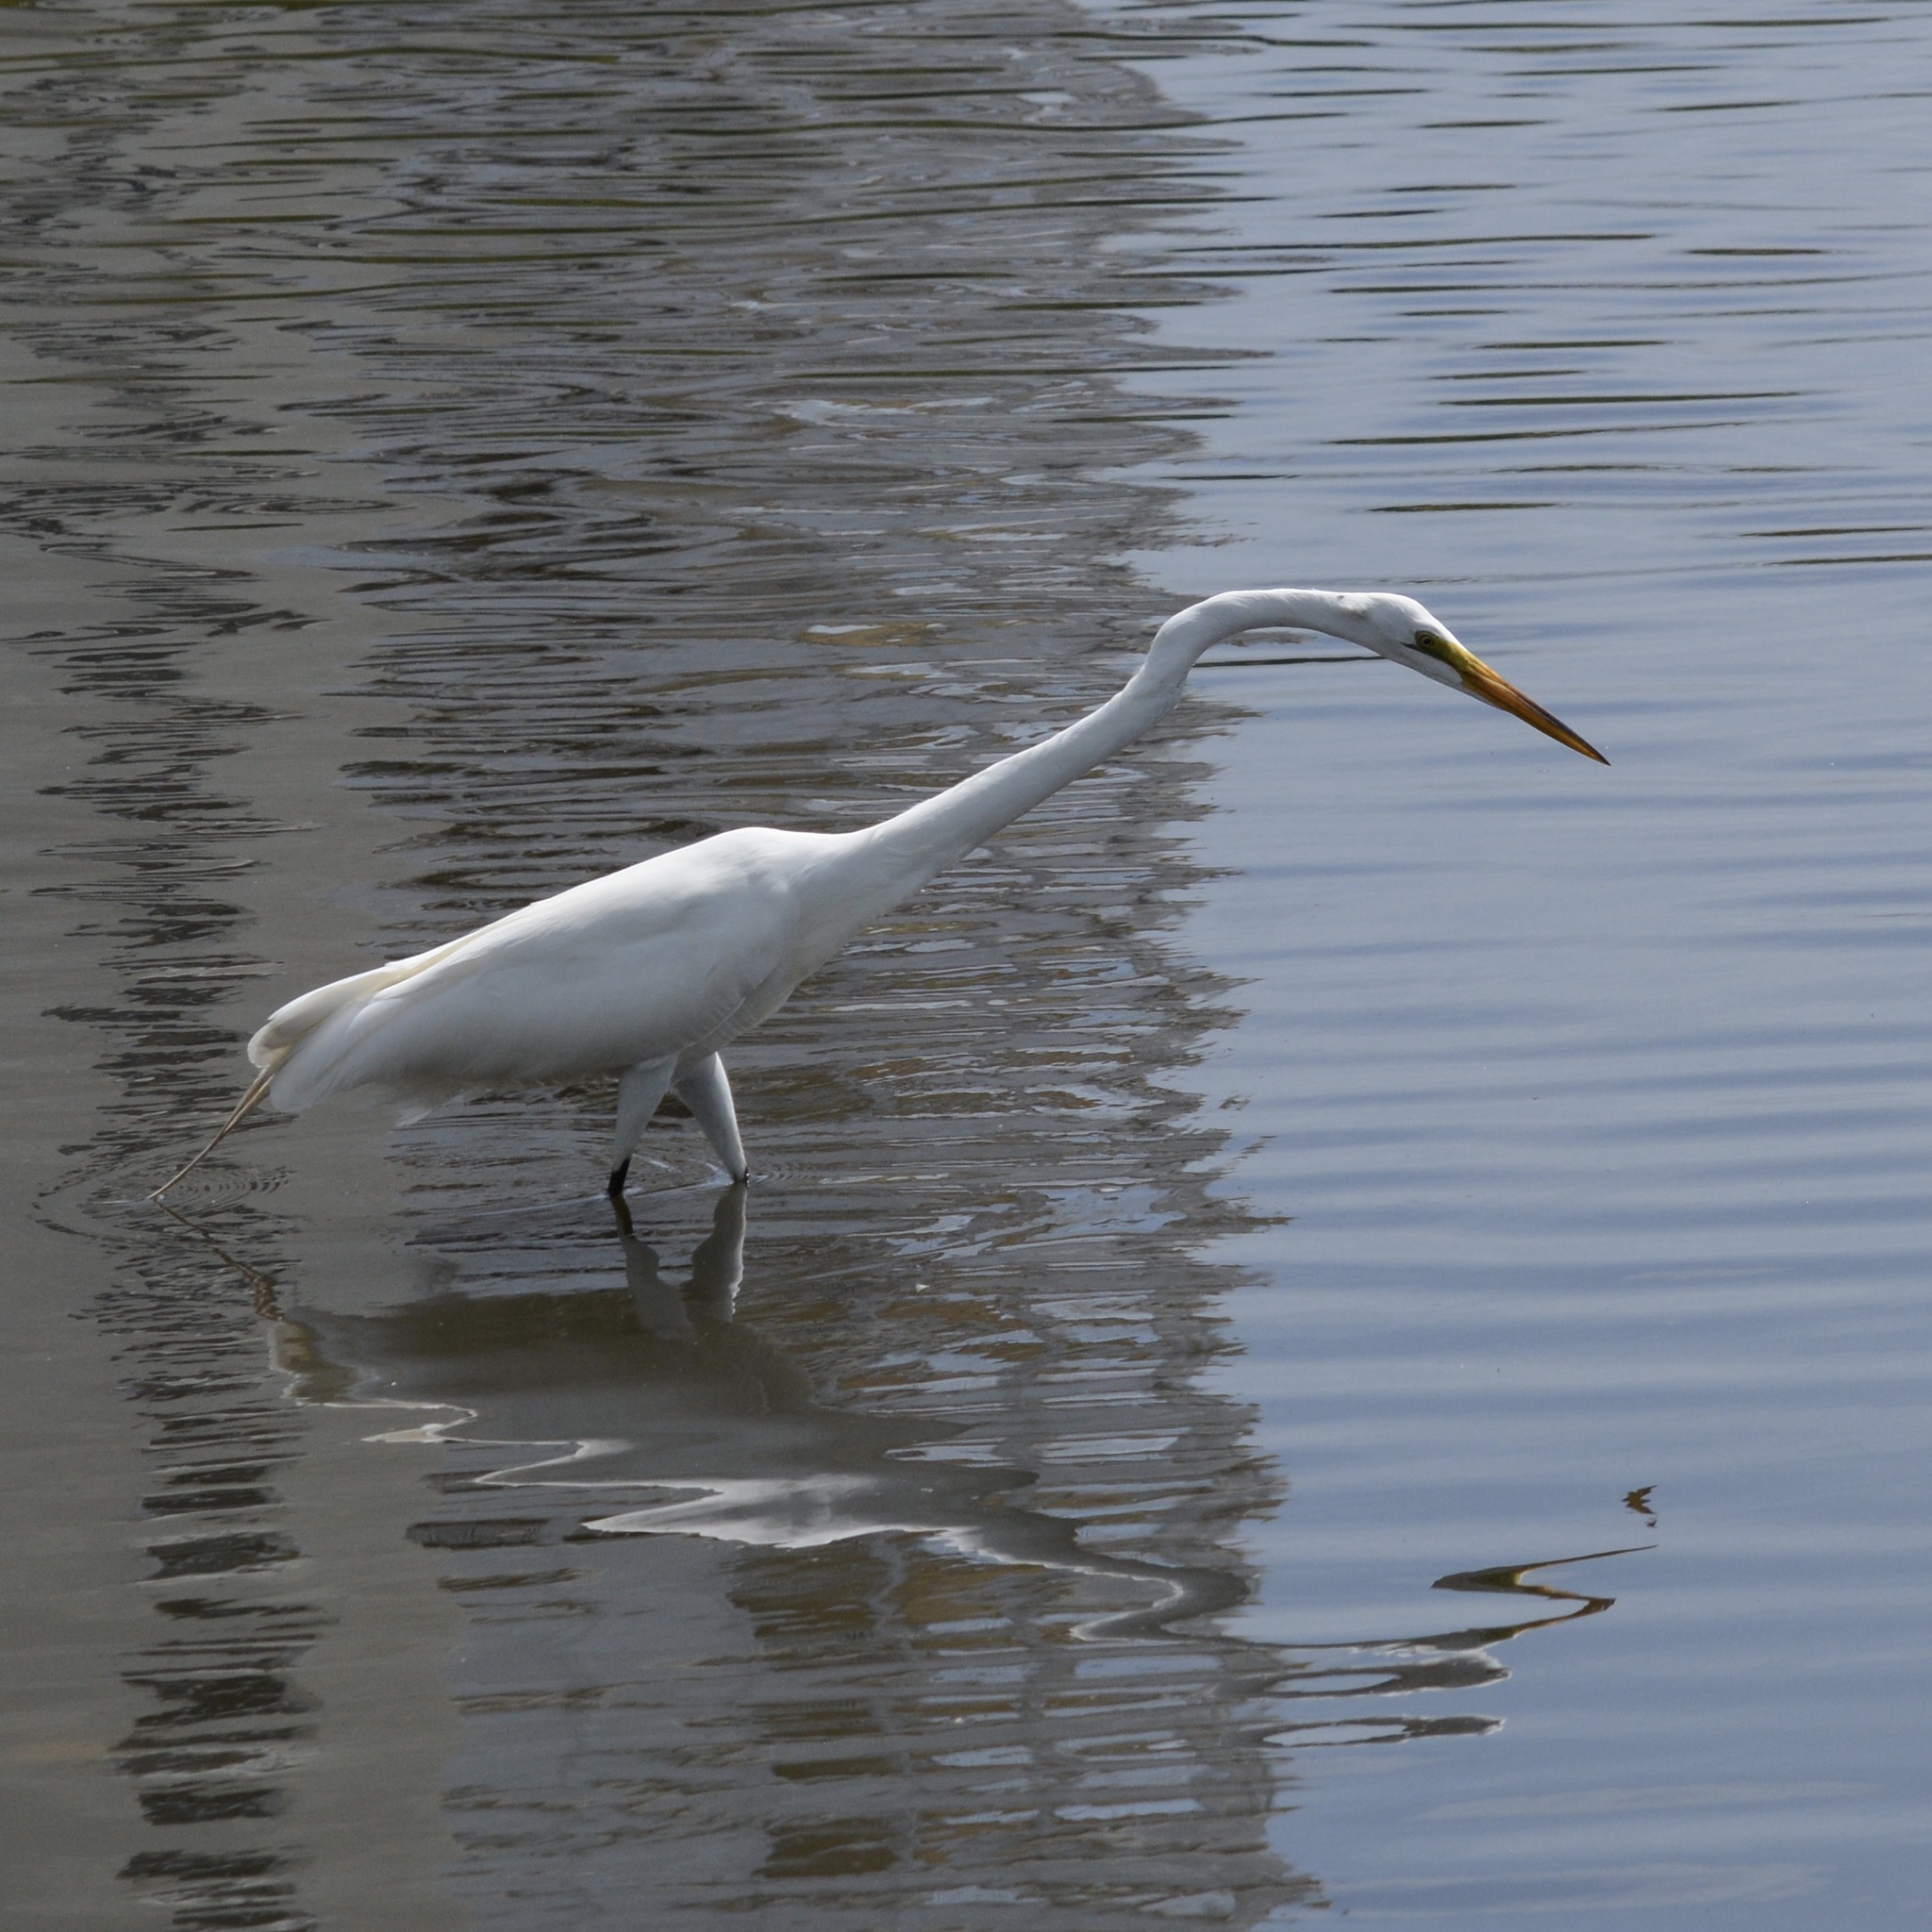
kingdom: Animalia
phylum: Chordata
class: Aves
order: Pelecaniformes
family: Ardeidae
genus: Ardea
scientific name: Ardea alba
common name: Great egret
